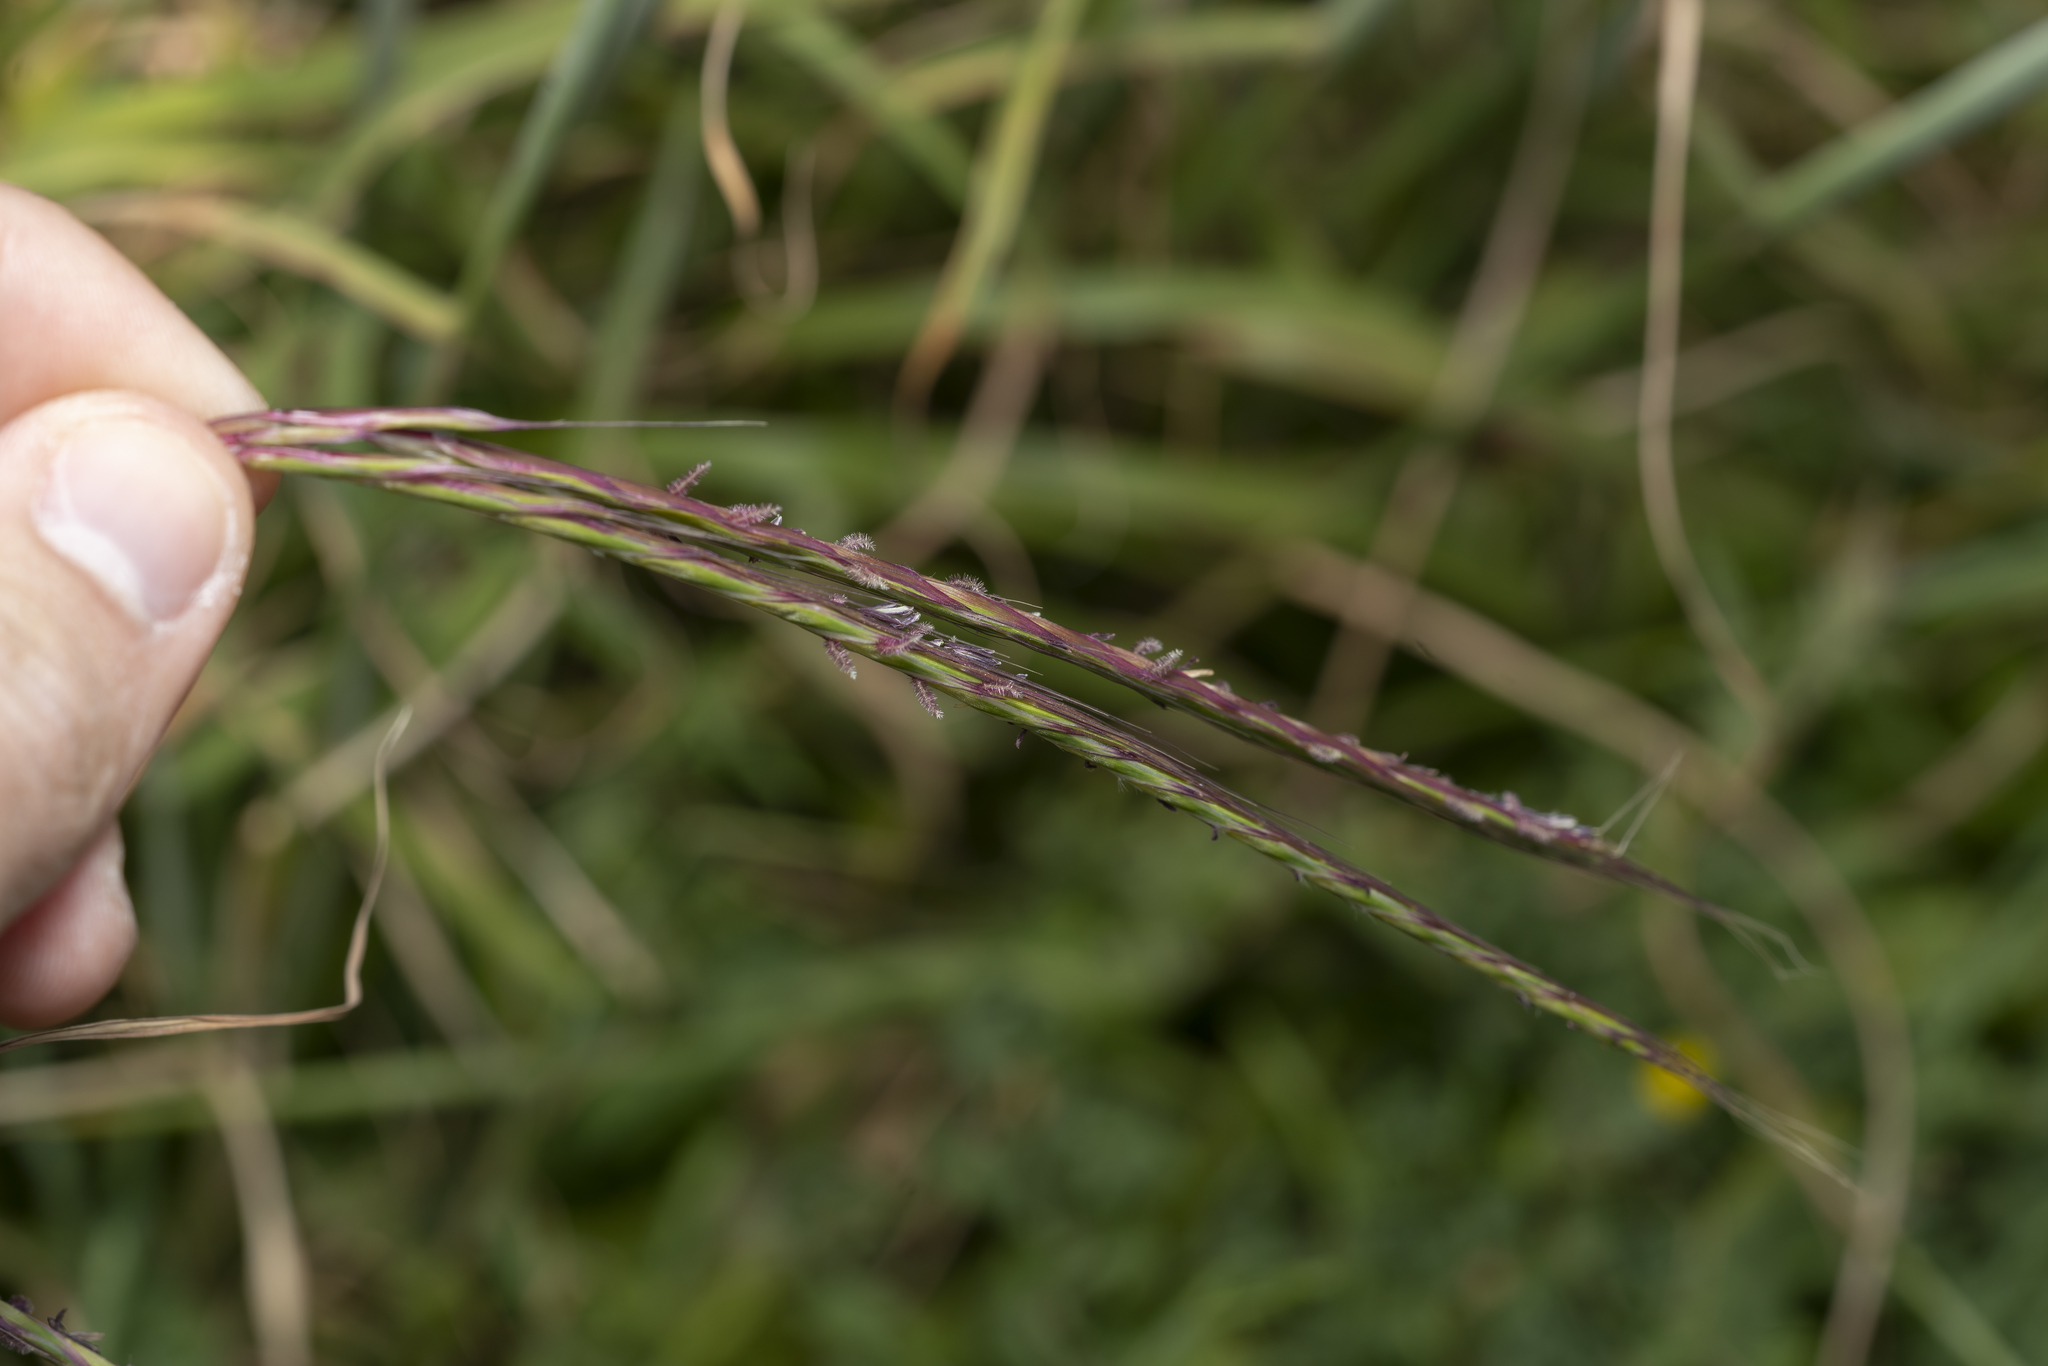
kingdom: Plantae
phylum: Tracheophyta
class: Liliopsida
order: Poales
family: Poaceae
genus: Andropogon
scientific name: Andropogon distachyos
